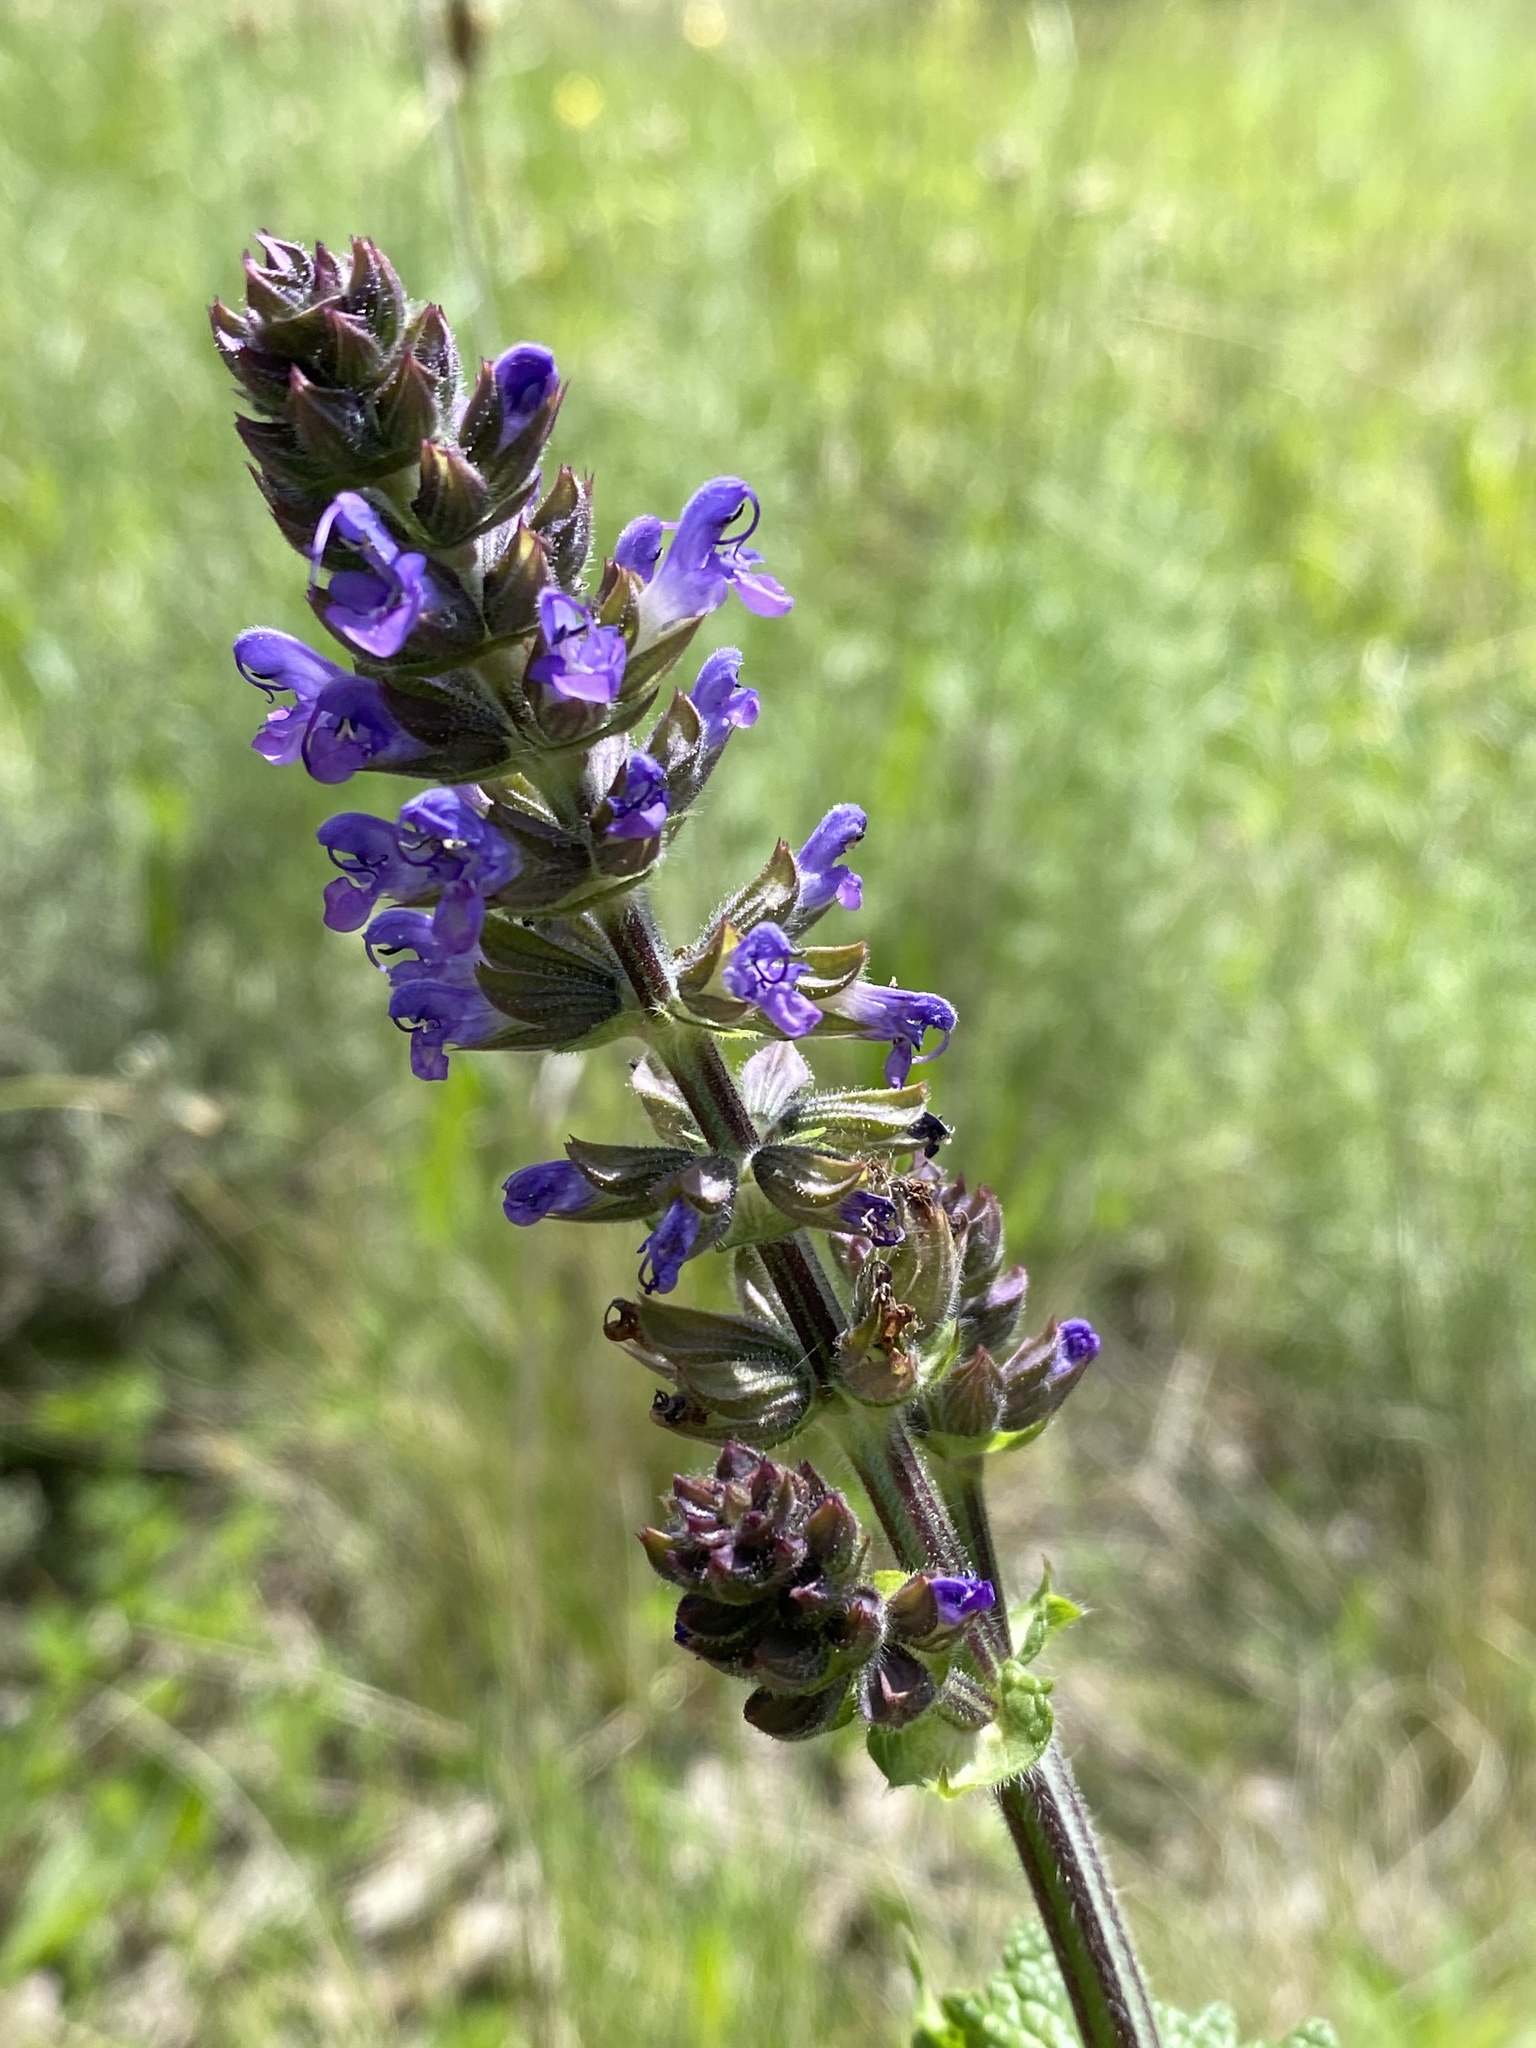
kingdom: Plantae
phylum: Tracheophyta
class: Magnoliopsida
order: Lamiales
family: Lamiaceae
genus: Salvia
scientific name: Salvia verbenaca
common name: Wild clary
